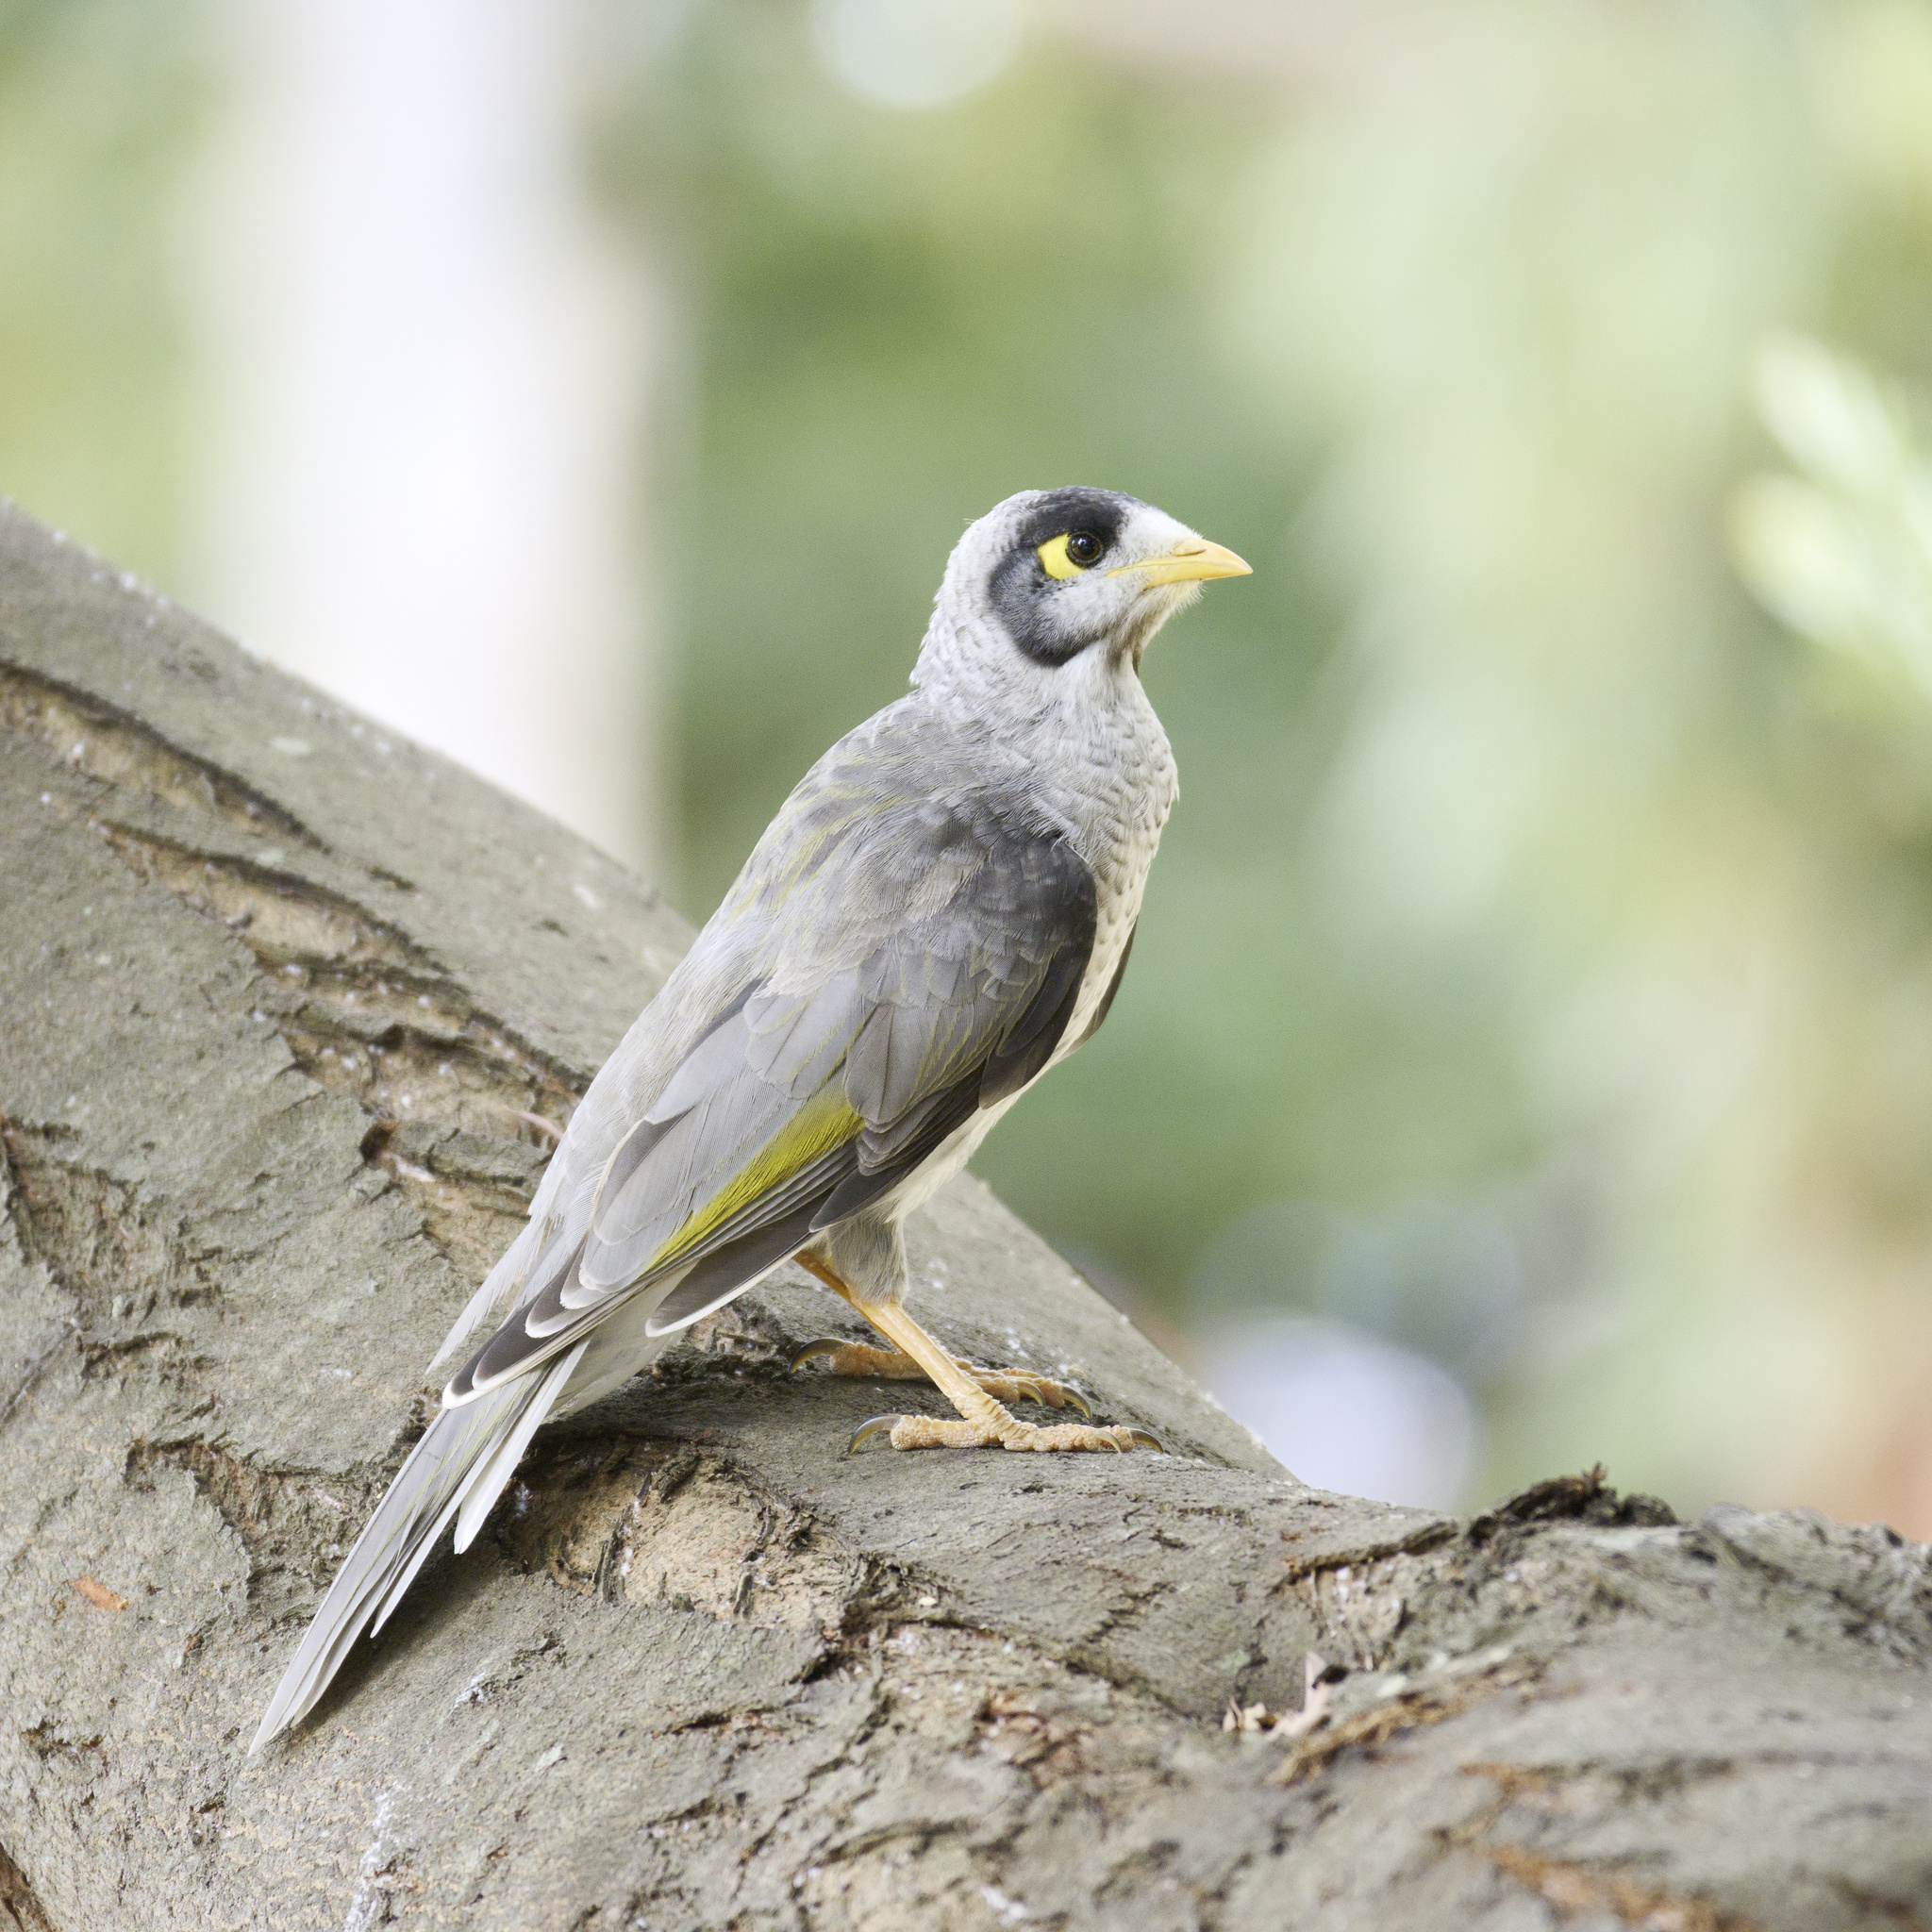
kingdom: Animalia
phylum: Chordata
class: Aves
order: Passeriformes
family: Meliphagidae
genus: Manorina
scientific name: Manorina melanocephala
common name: Noisy miner
